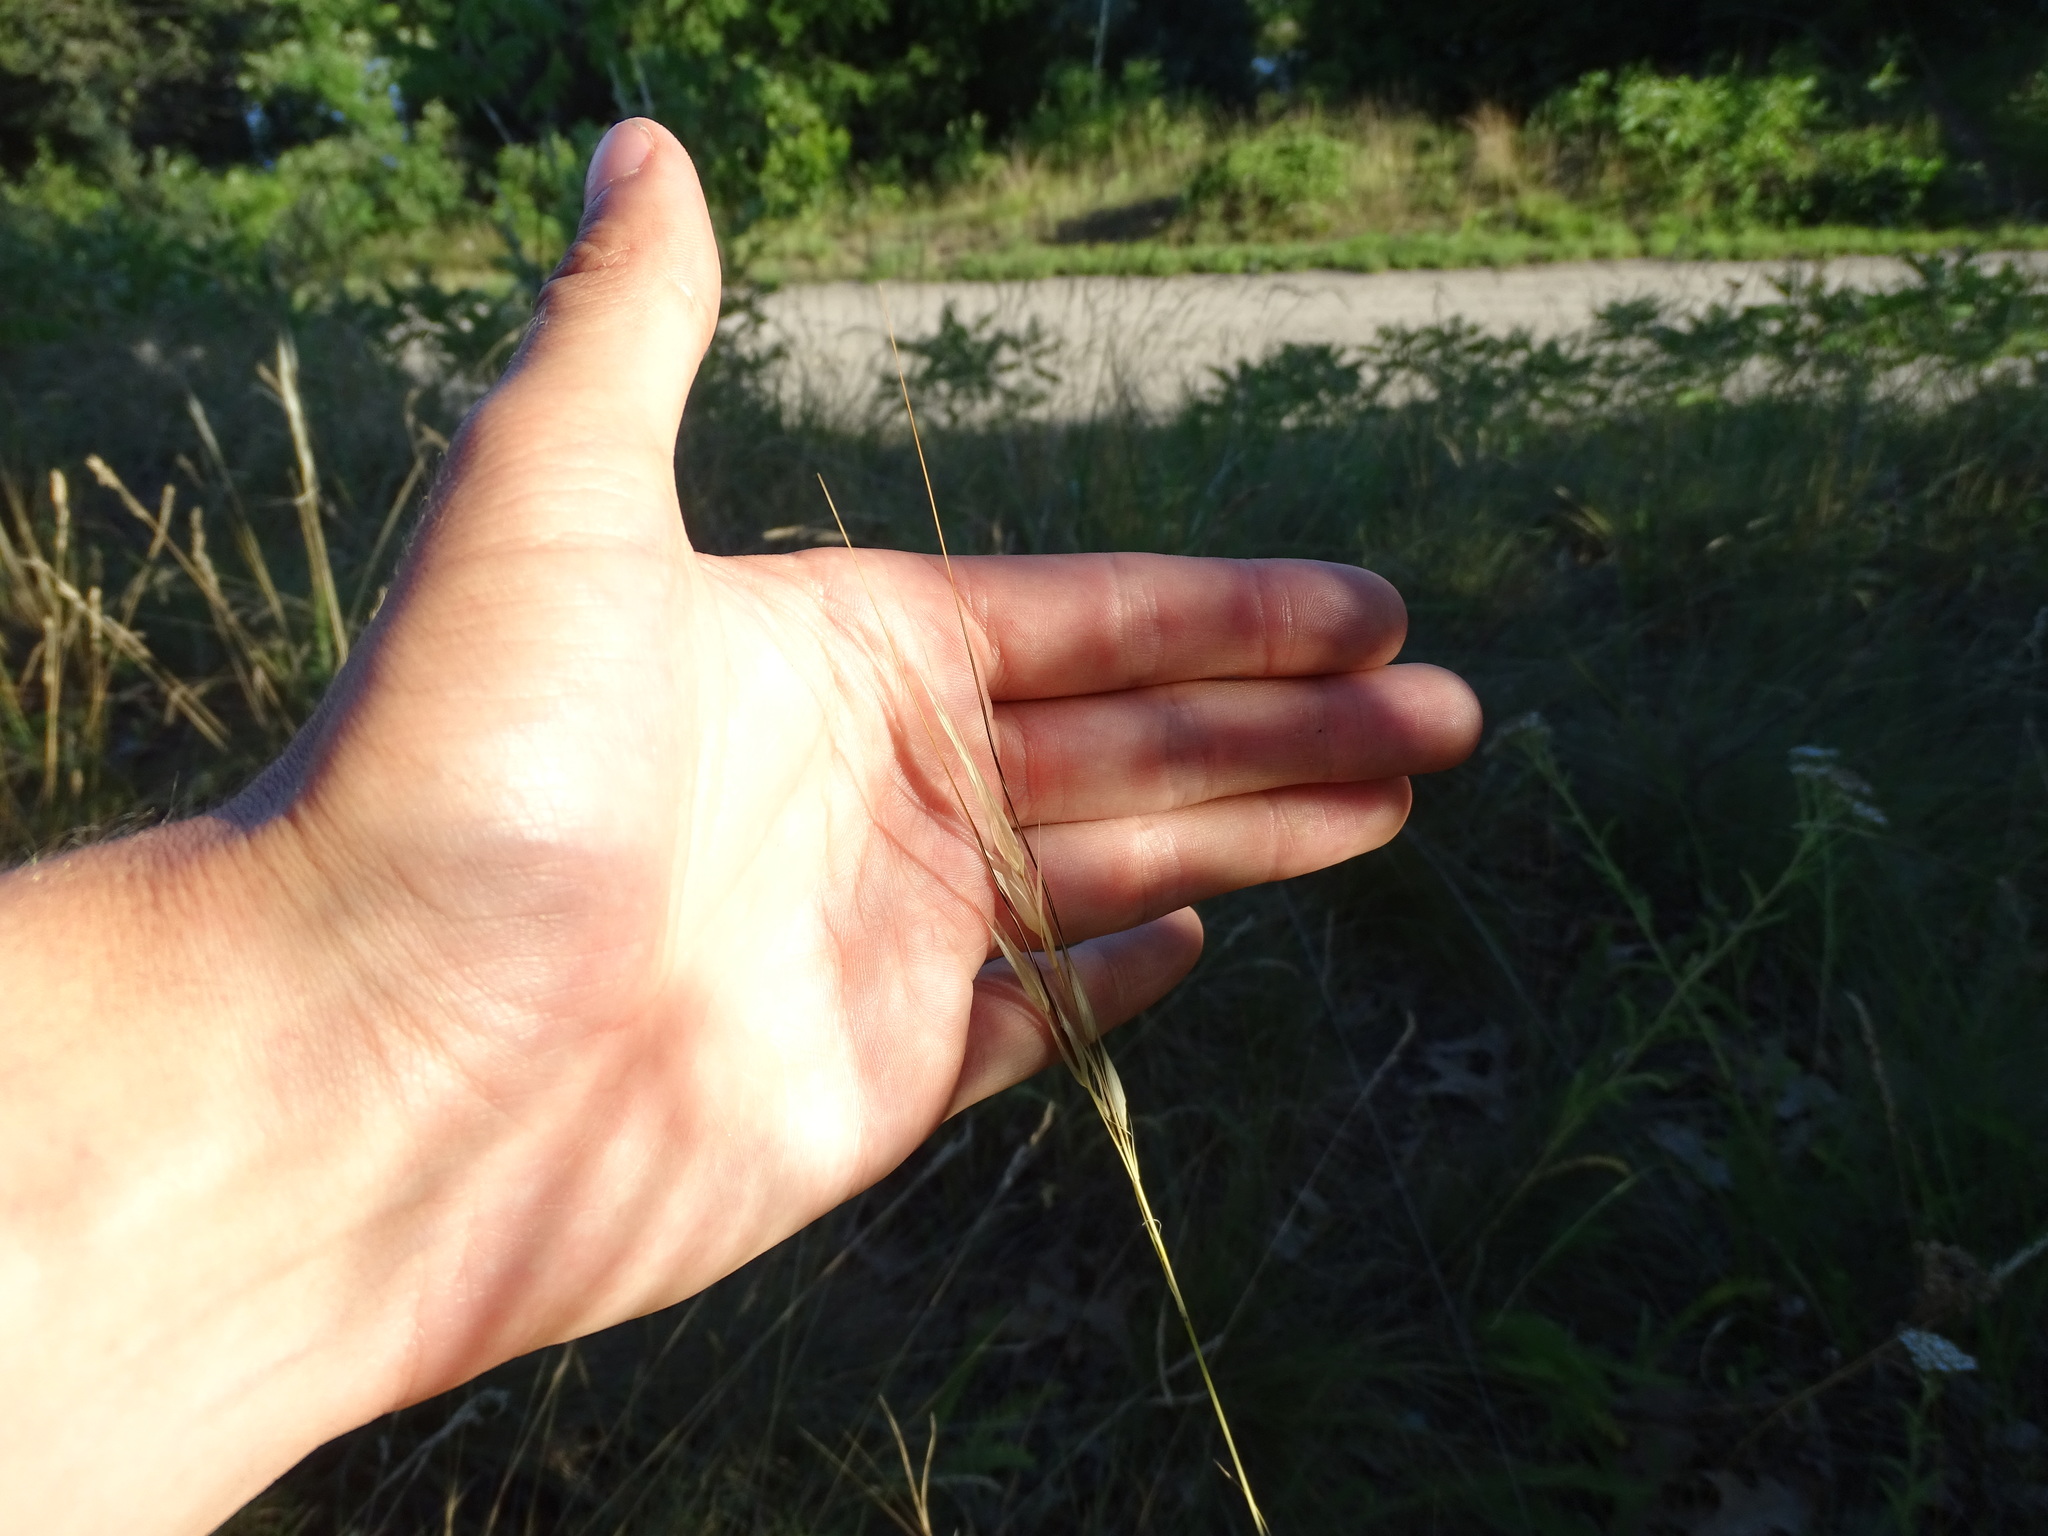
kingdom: Plantae
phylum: Tracheophyta
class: Liliopsida
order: Poales
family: Poaceae
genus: Hesperostipa
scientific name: Hesperostipa spartea
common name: Porcupine grass
